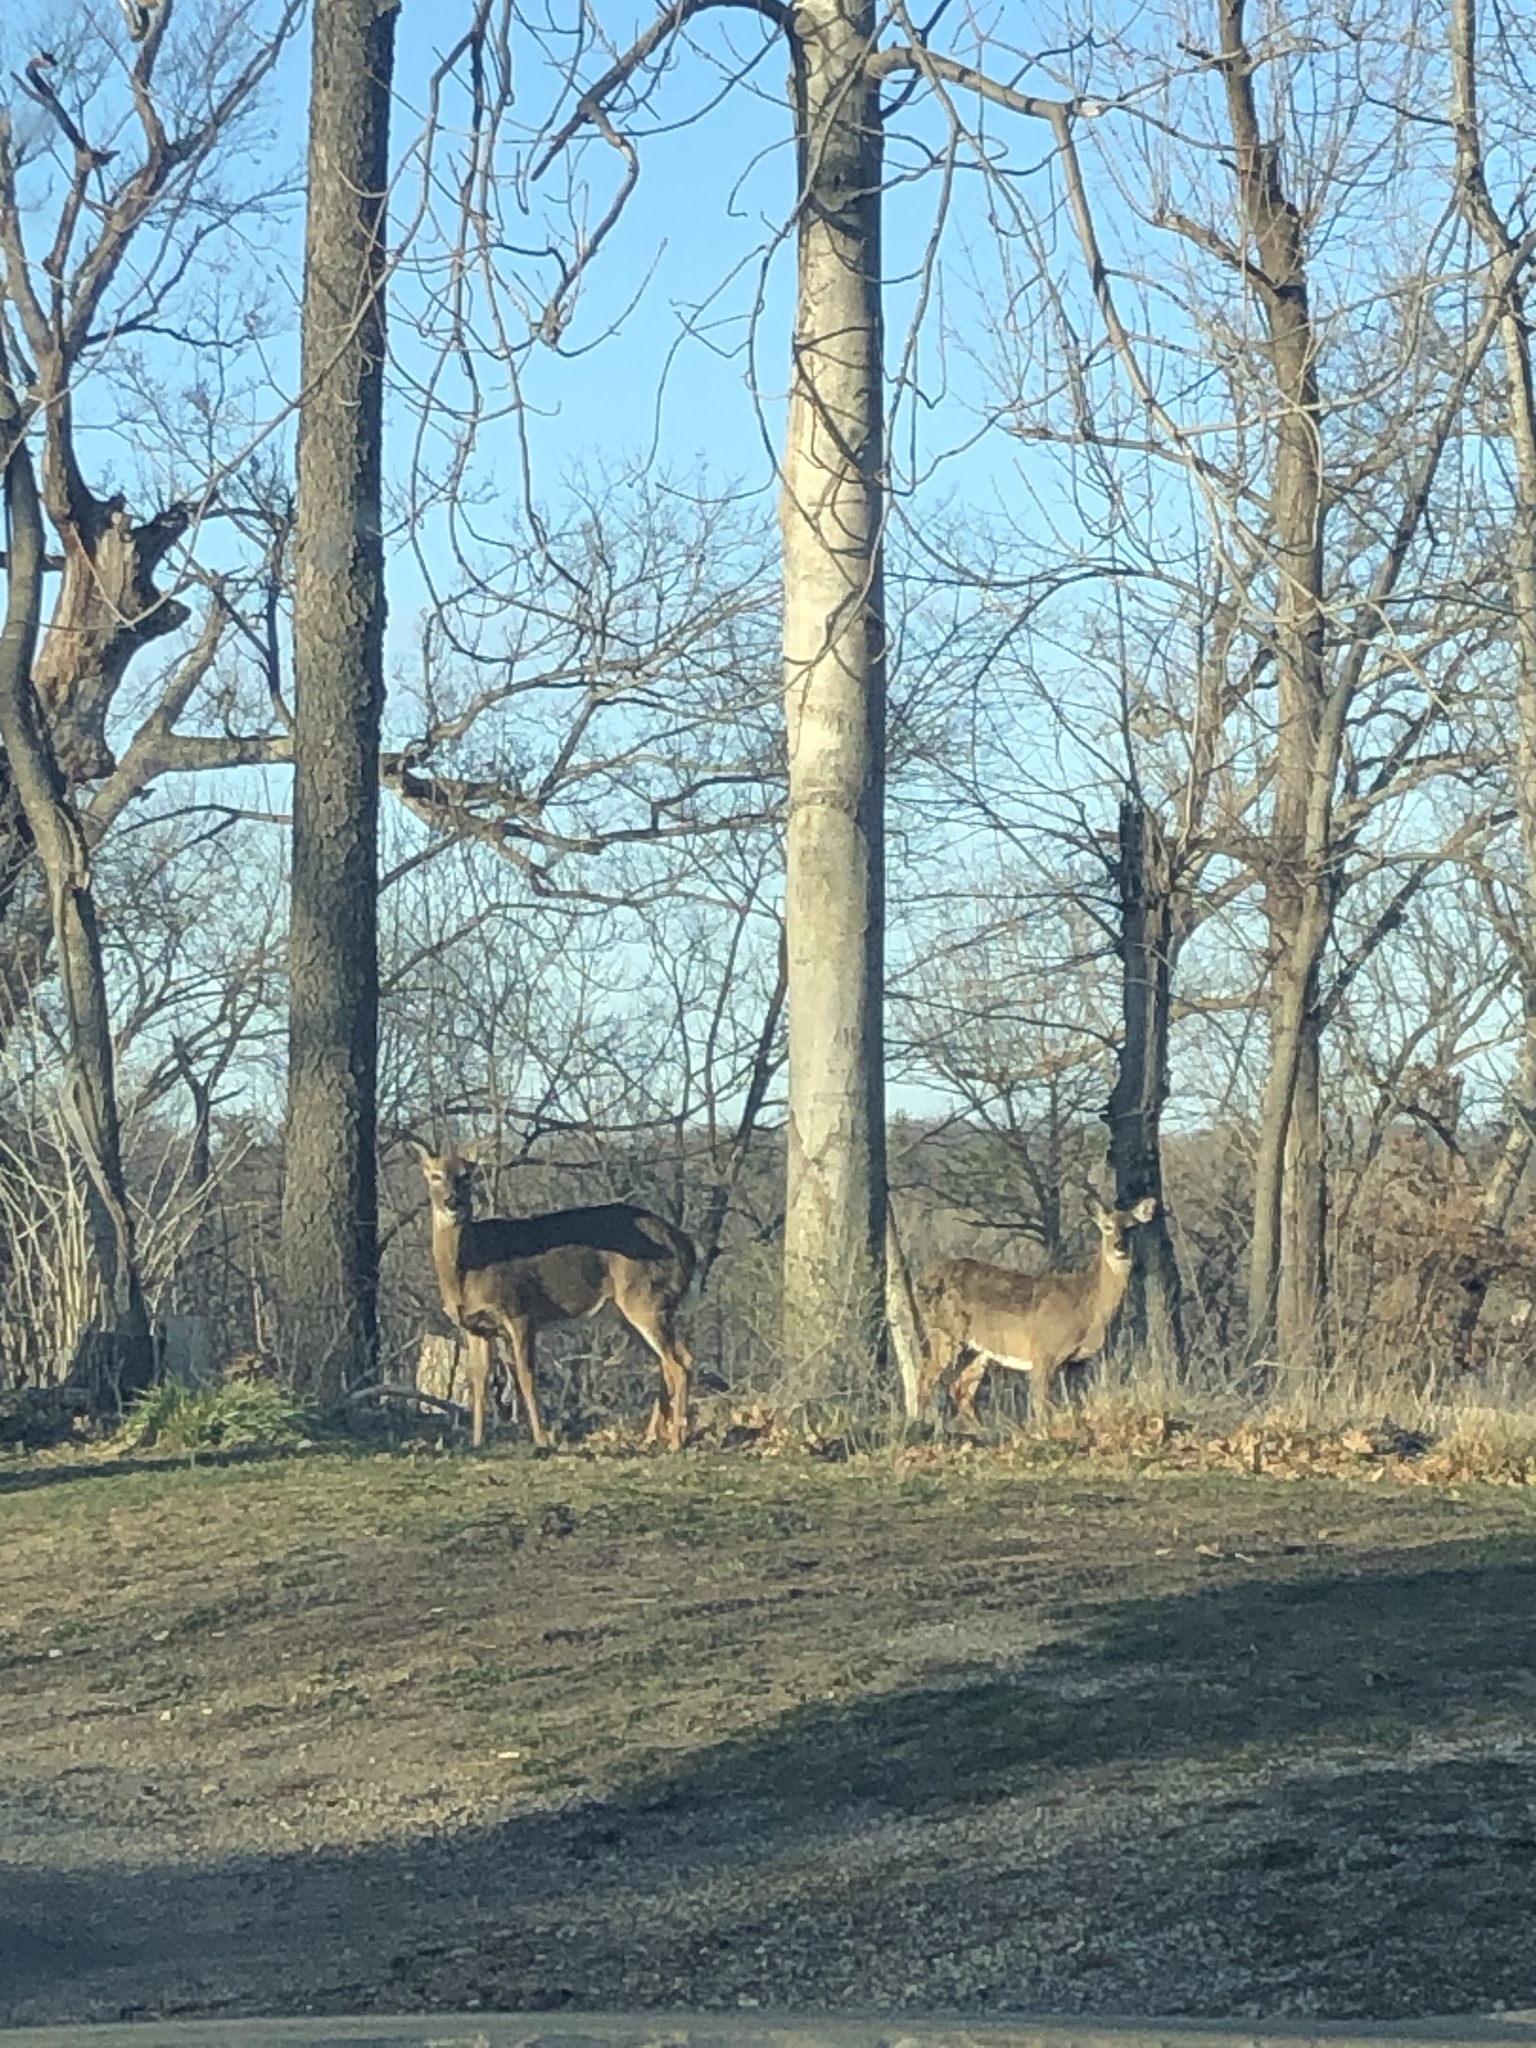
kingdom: Animalia
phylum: Chordata
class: Mammalia
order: Artiodactyla
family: Cervidae
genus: Odocoileus
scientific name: Odocoileus virginianus
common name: White-tailed deer
